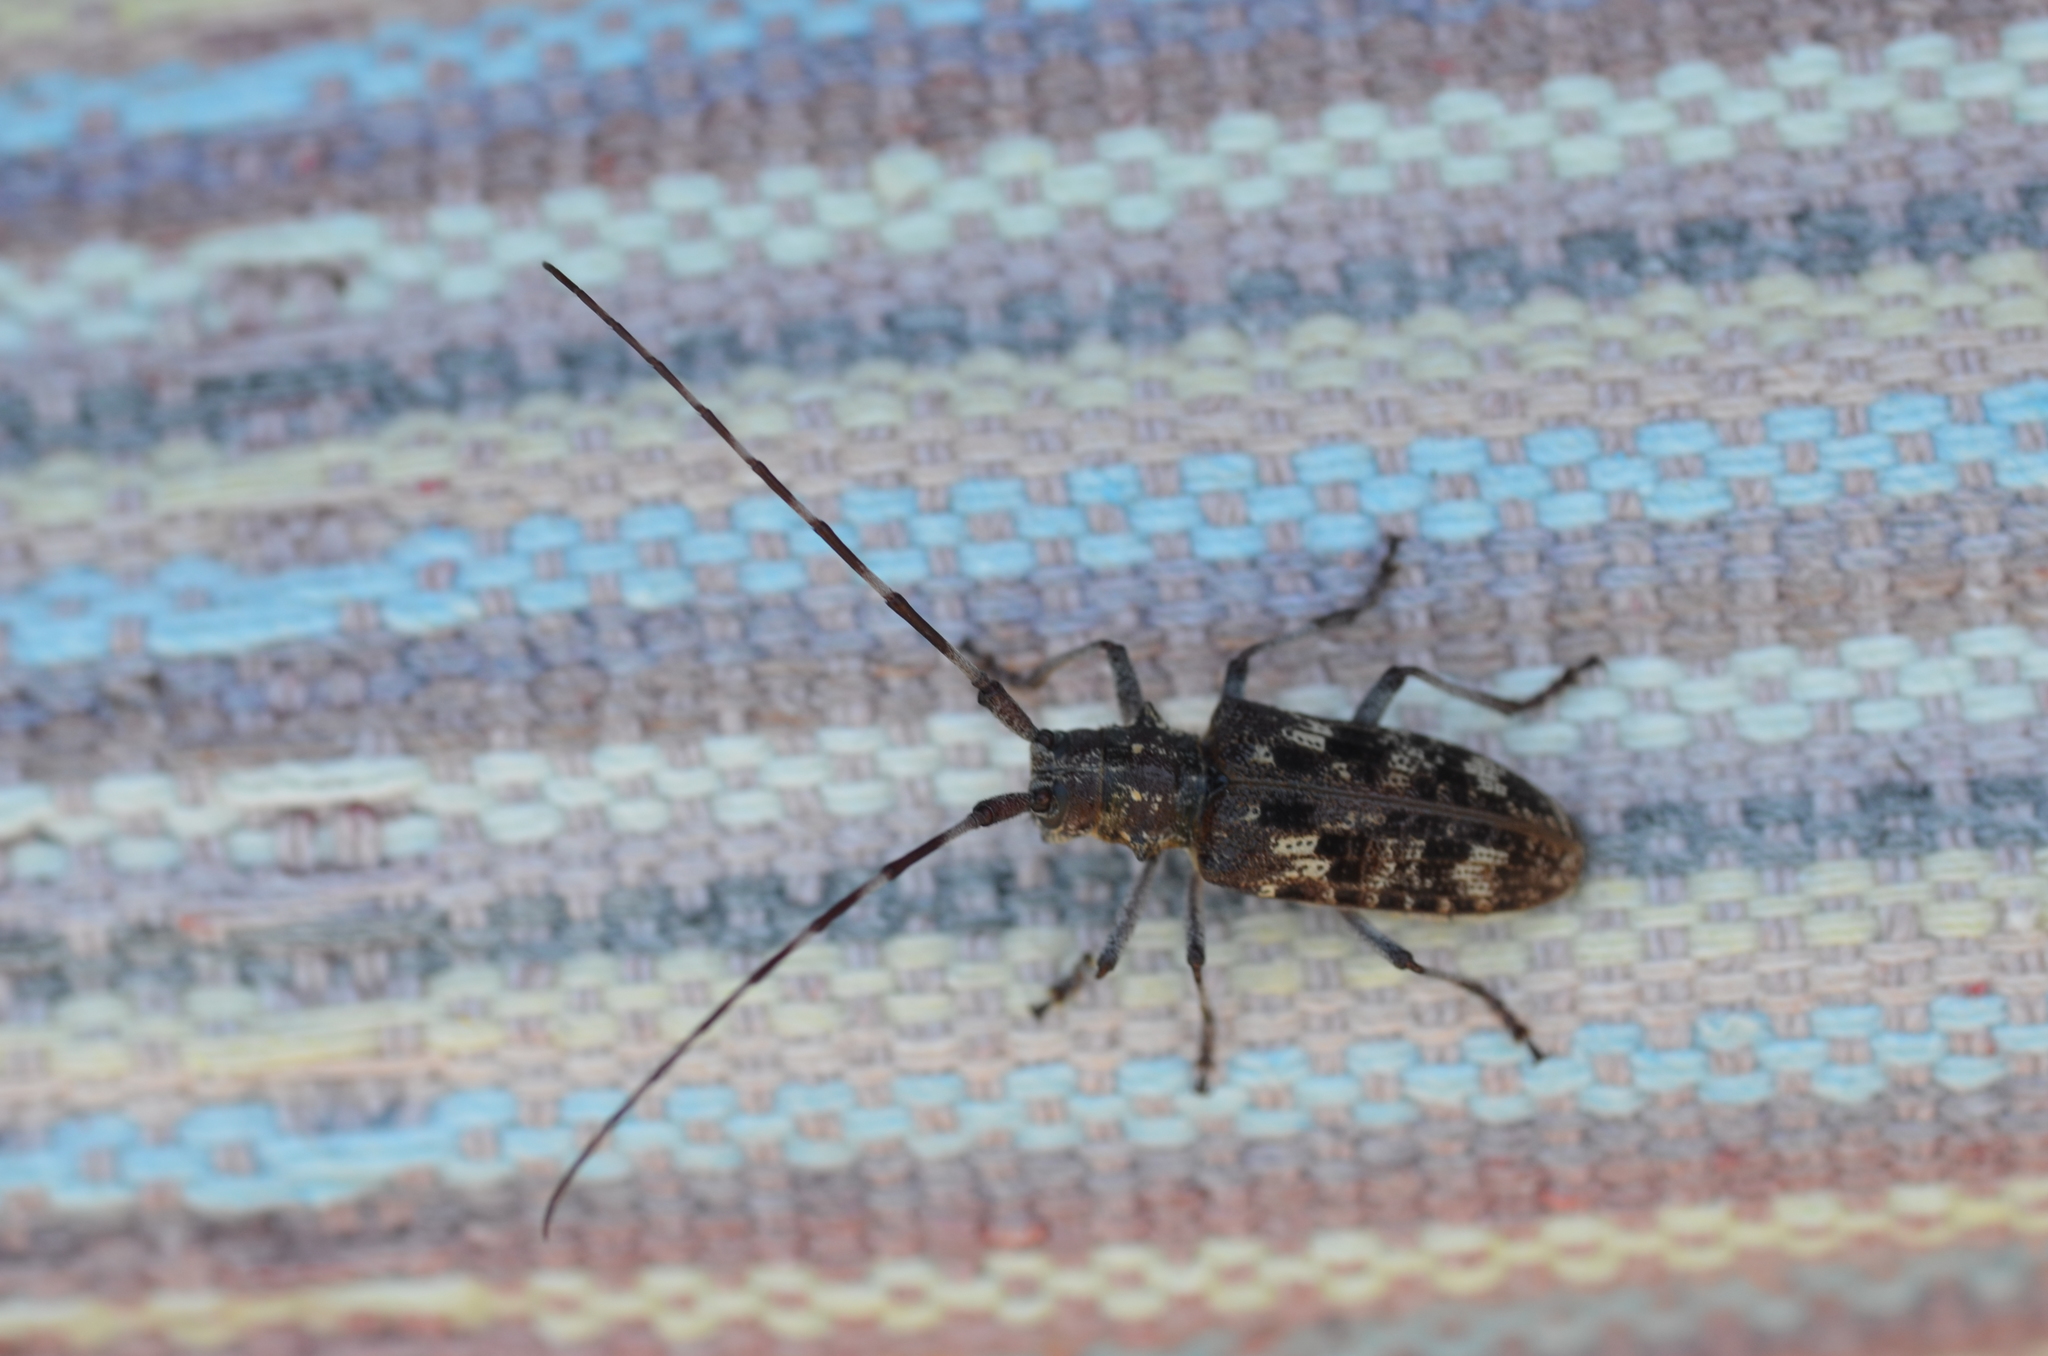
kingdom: Animalia
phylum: Arthropoda
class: Insecta
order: Coleoptera
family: Cerambycidae
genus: Monochamus
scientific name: Monochamus obtusus
